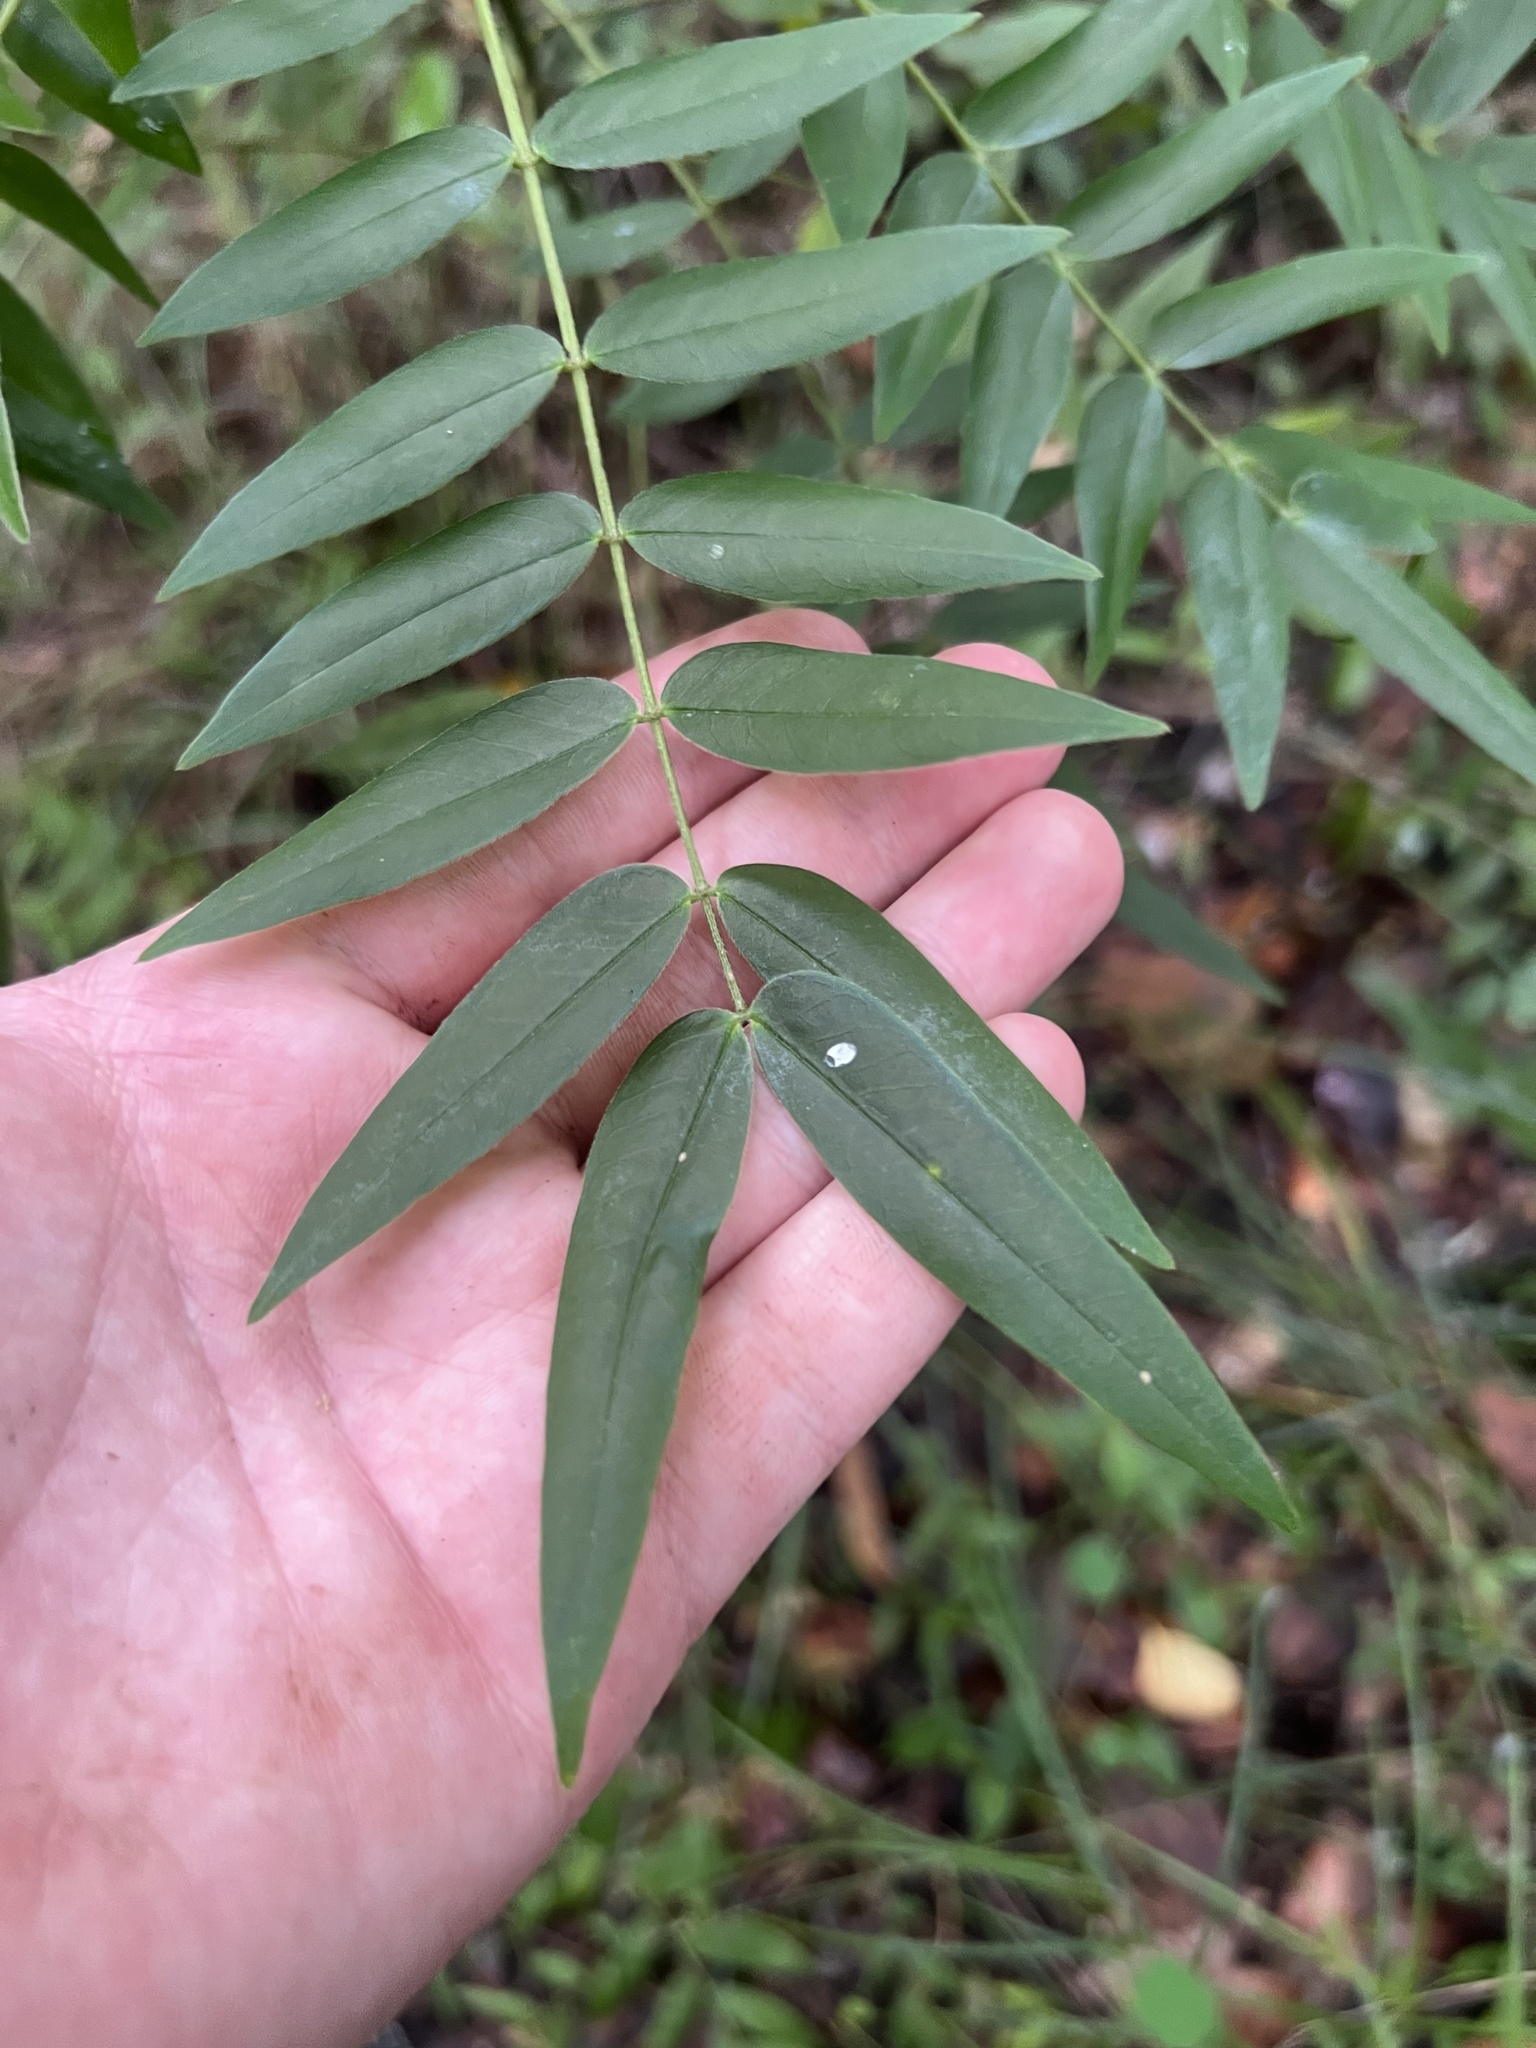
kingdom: Plantae
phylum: Tracheophyta
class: Magnoliopsida
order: Fabales
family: Fabaceae
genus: Senna
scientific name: Senna ligustrina
